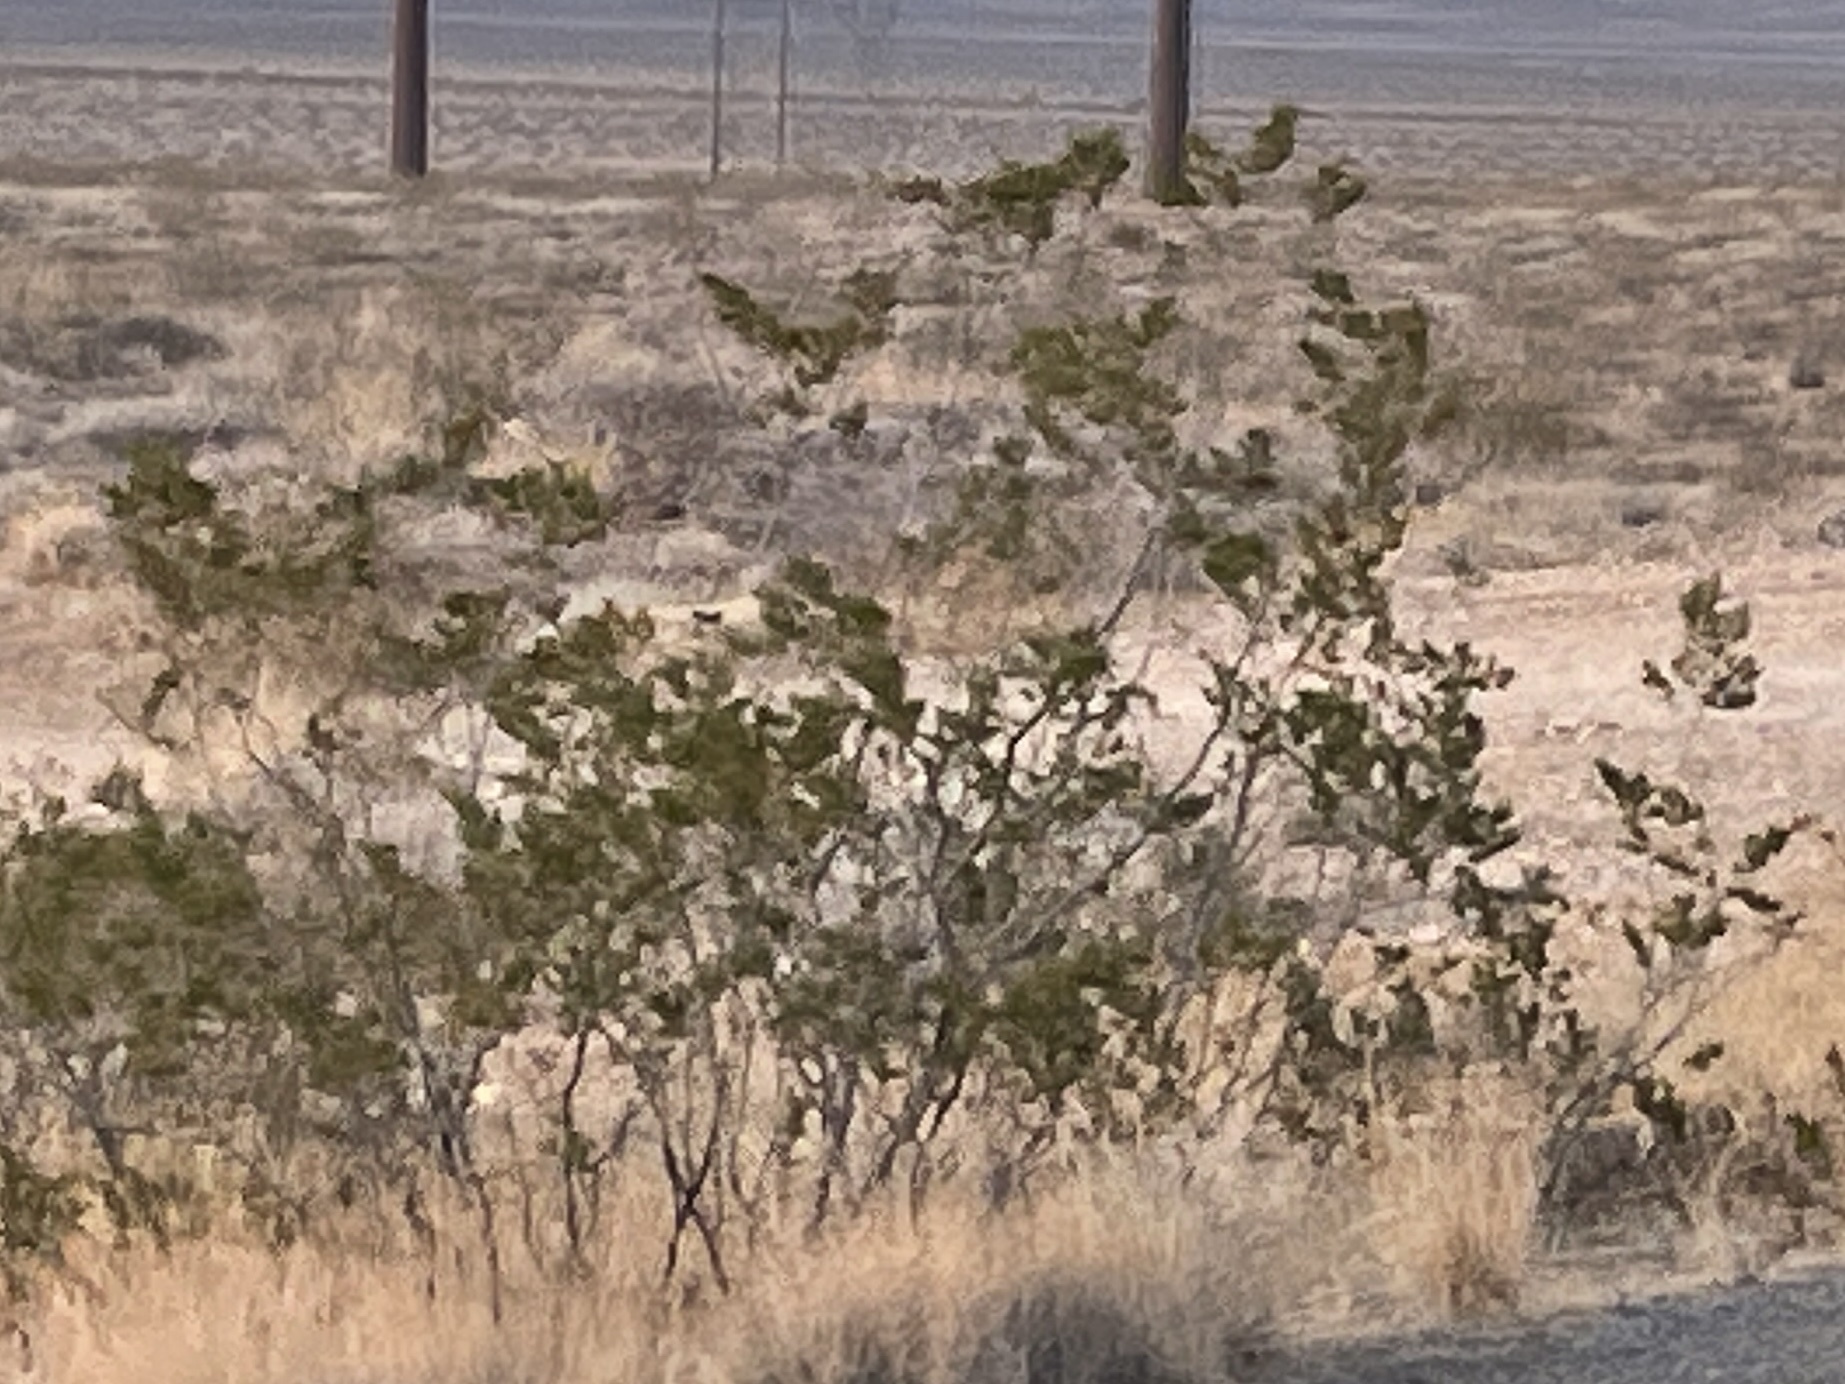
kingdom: Plantae
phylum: Tracheophyta
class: Magnoliopsida
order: Zygophyllales
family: Zygophyllaceae
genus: Larrea
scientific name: Larrea tridentata
